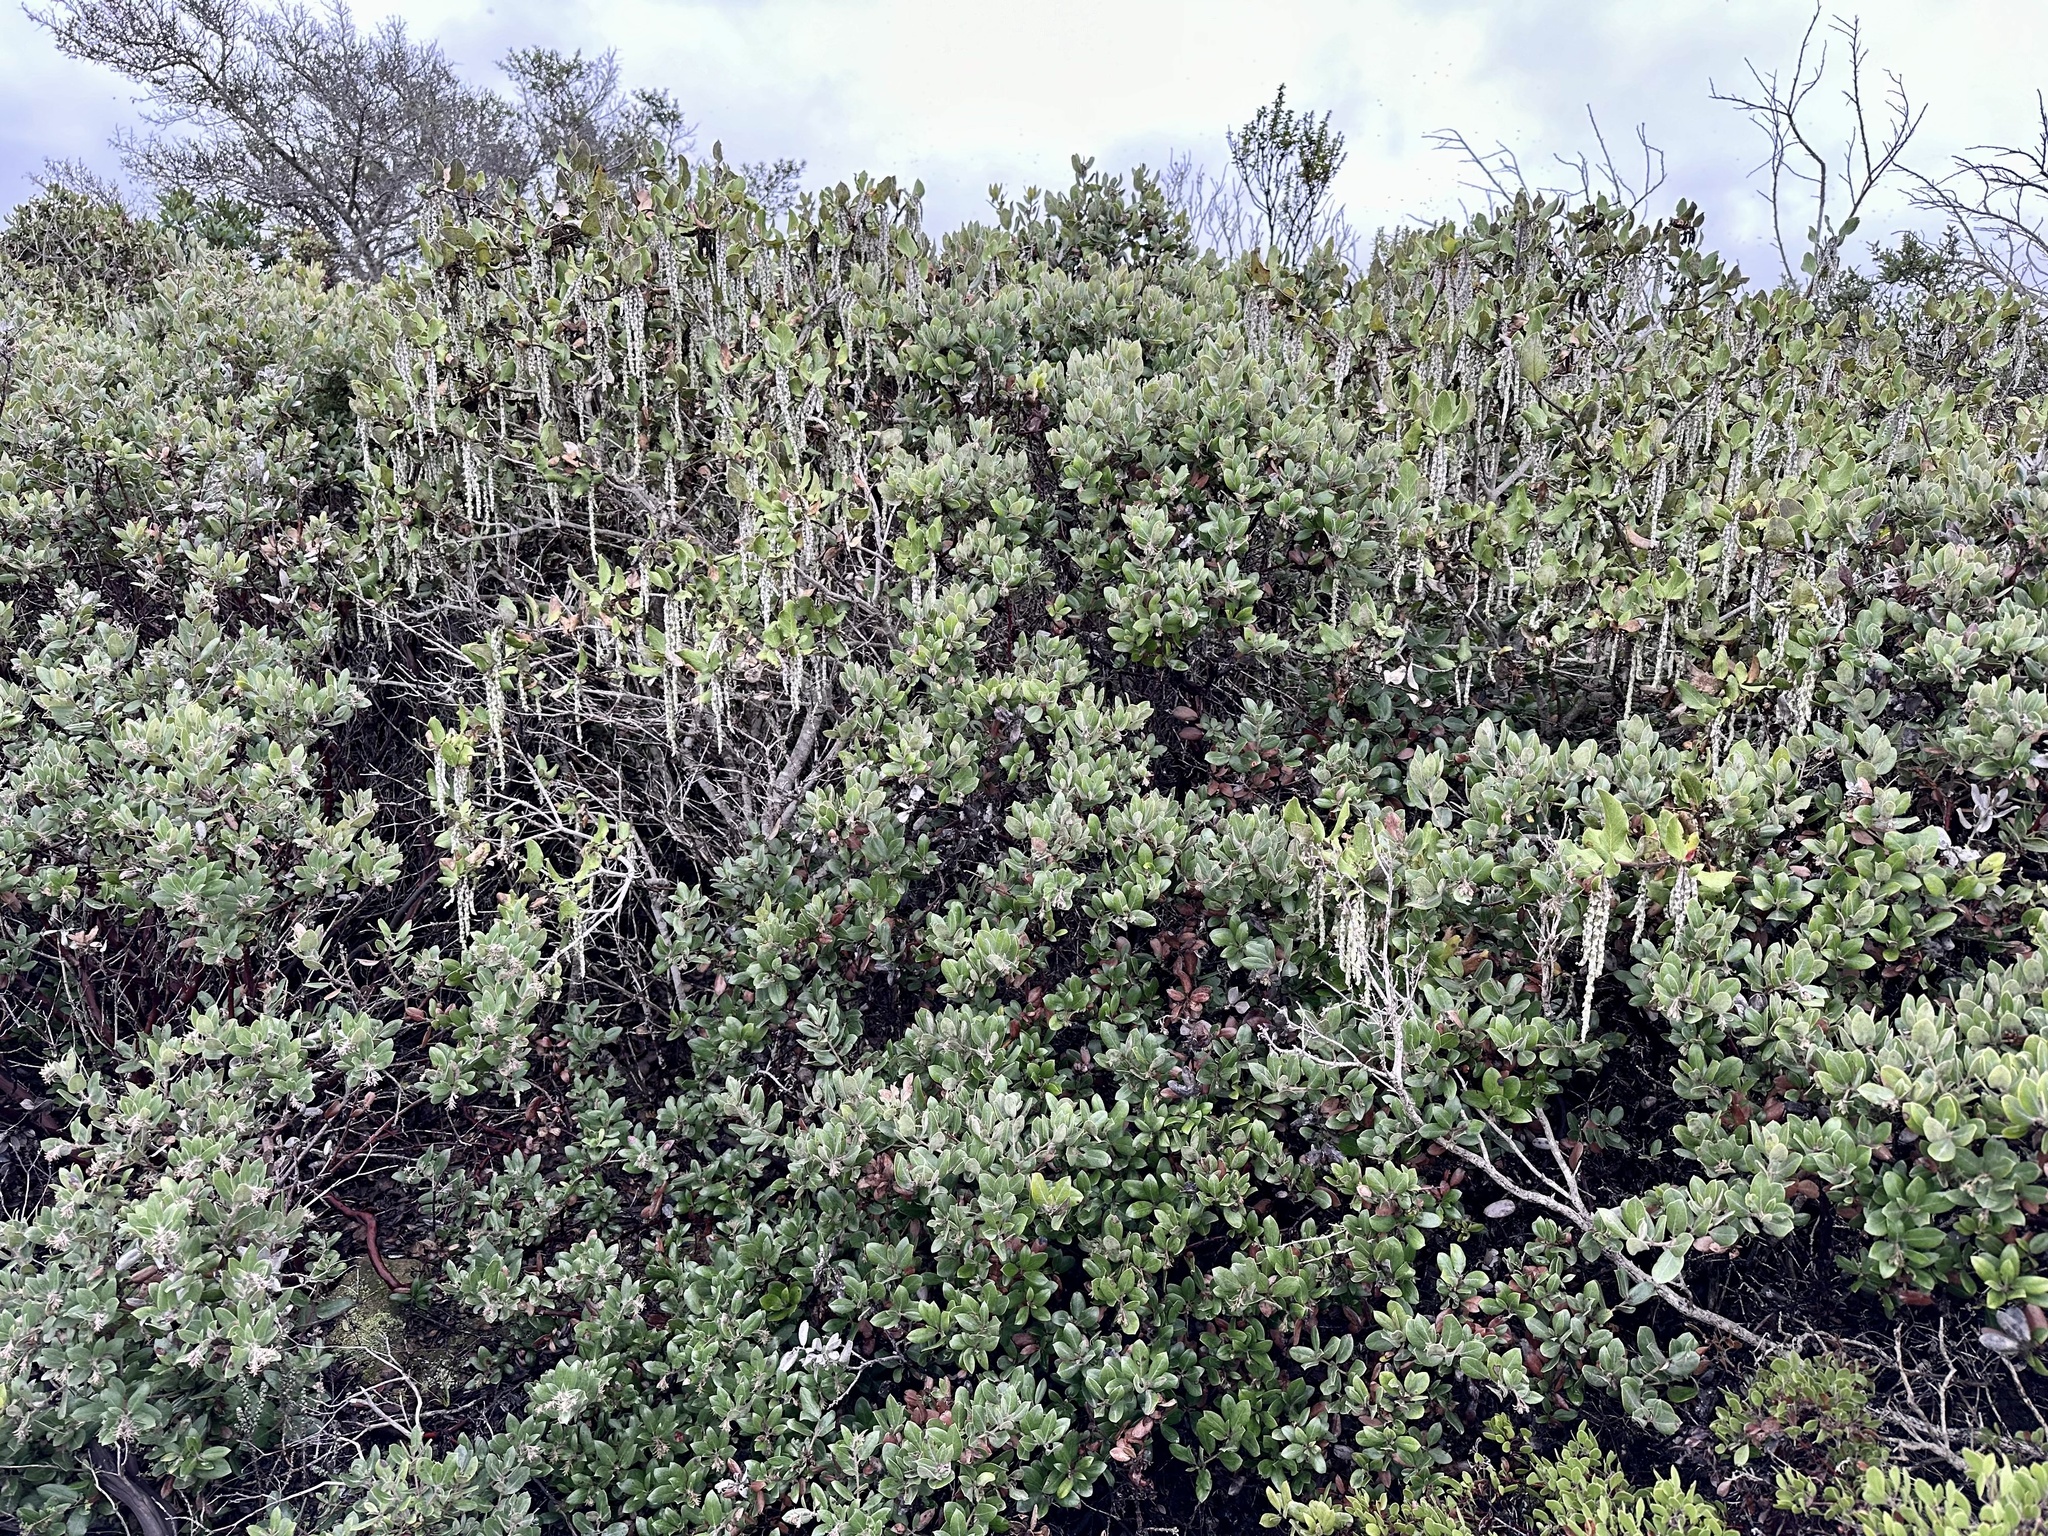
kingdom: Plantae
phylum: Tracheophyta
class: Magnoliopsida
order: Garryales
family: Garryaceae
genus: Garrya
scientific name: Garrya elliptica
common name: Silk-tassel
